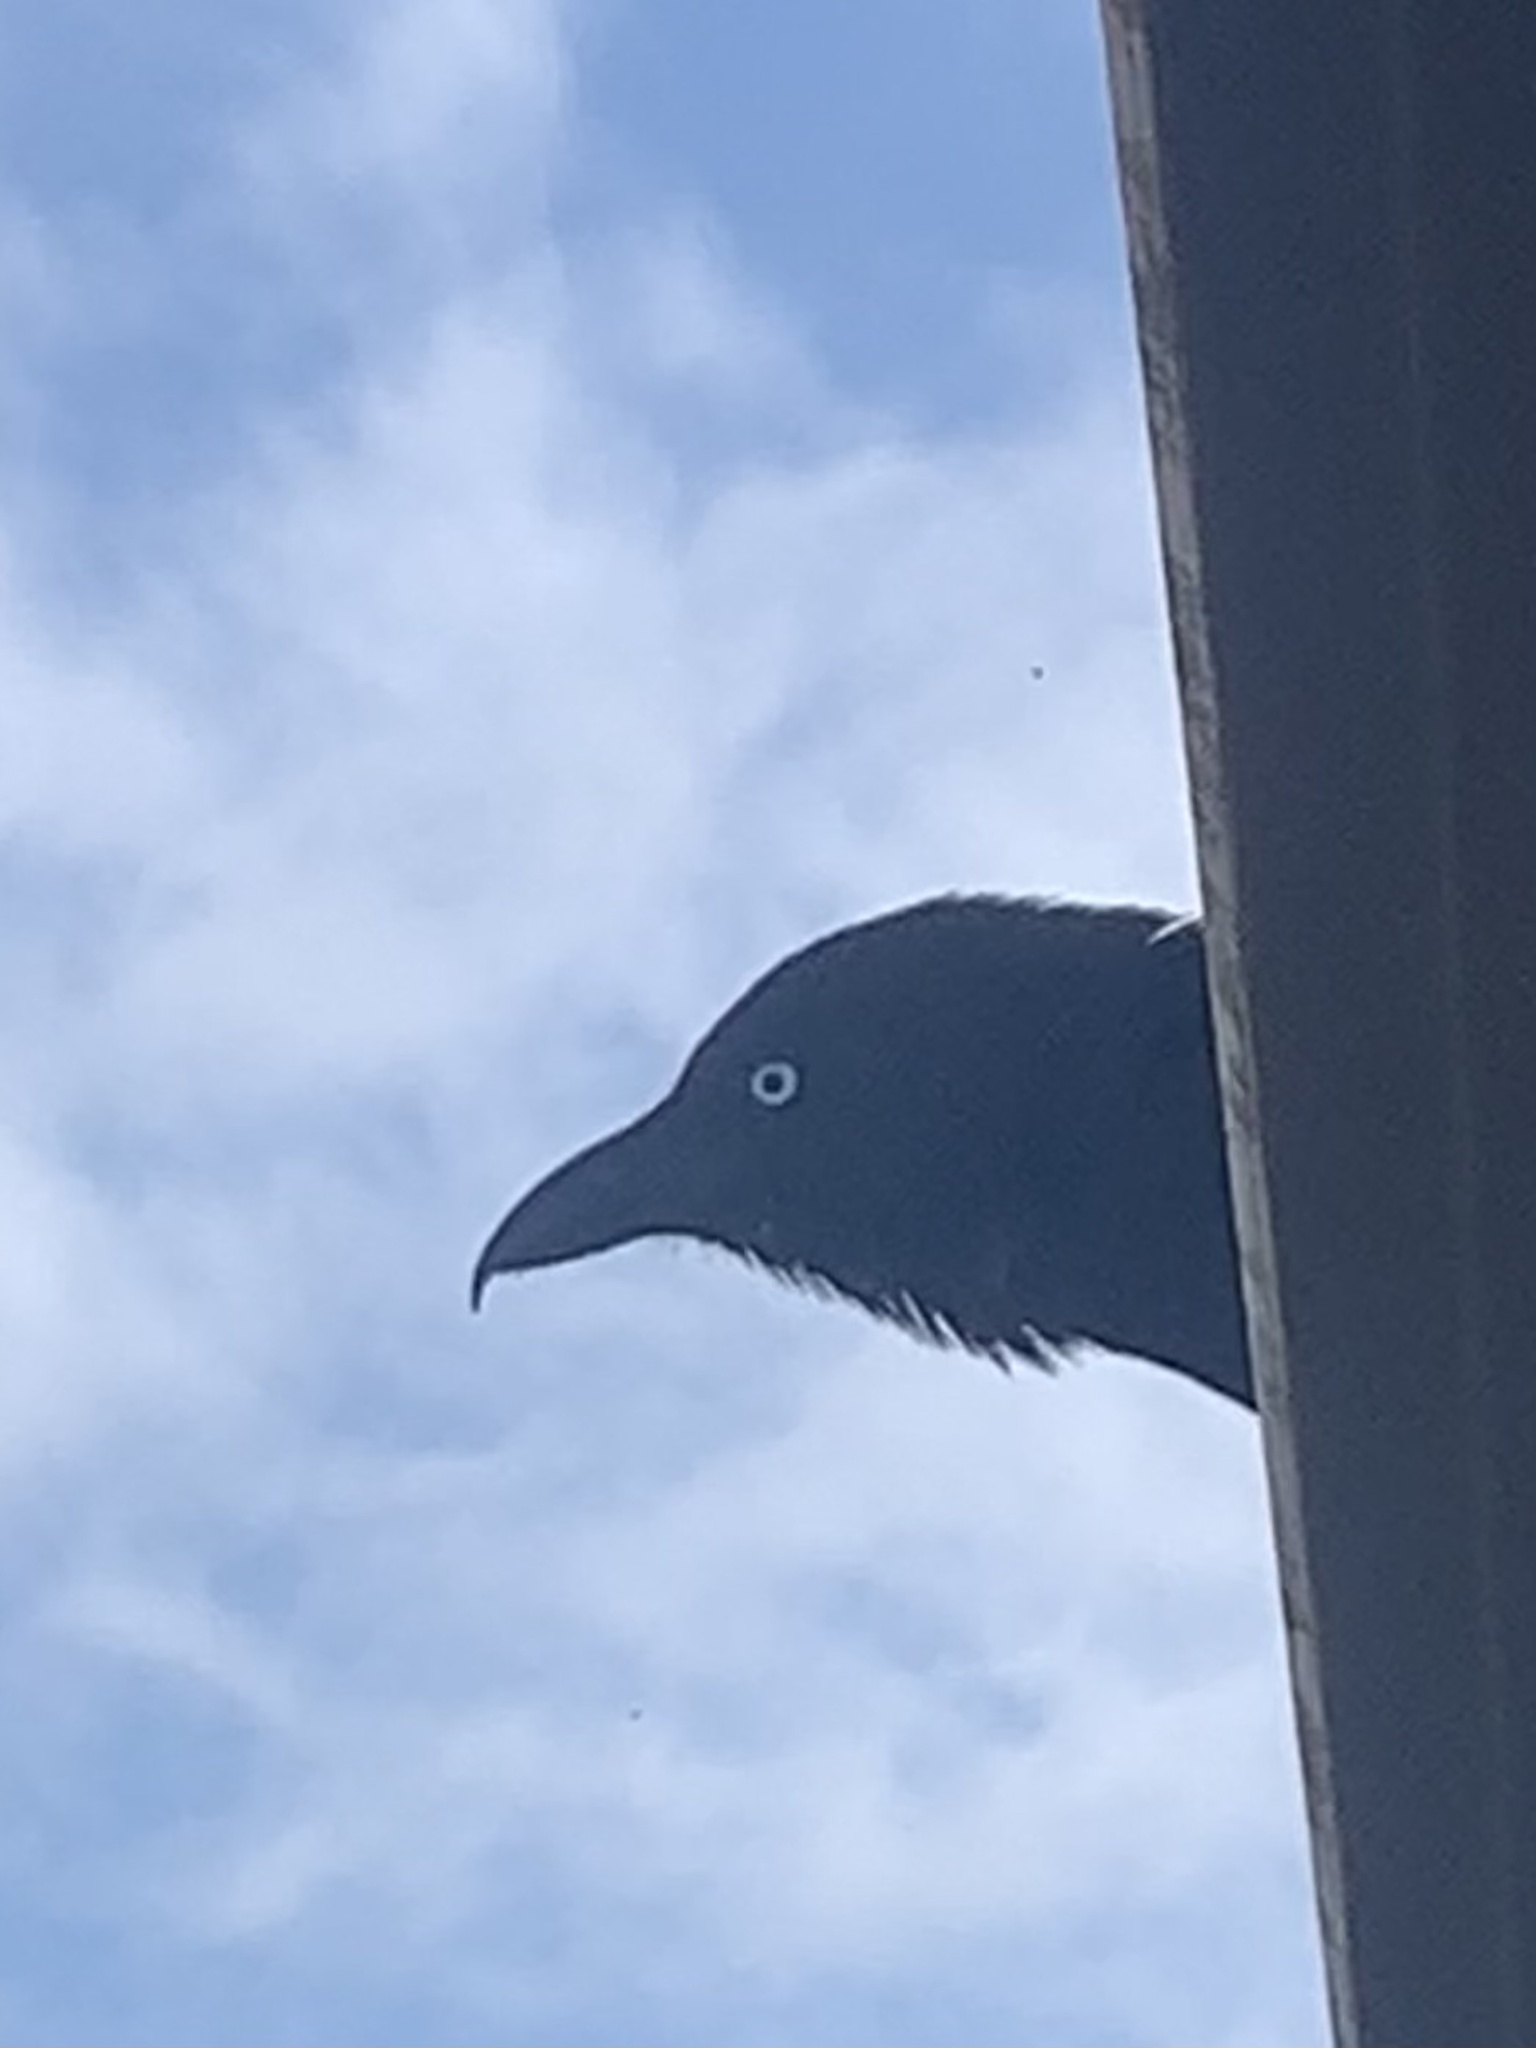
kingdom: Animalia
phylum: Chordata
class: Aves
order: Passeriformes
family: Corvidae
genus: Corvus
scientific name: Corvus orru
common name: Torresian crow
